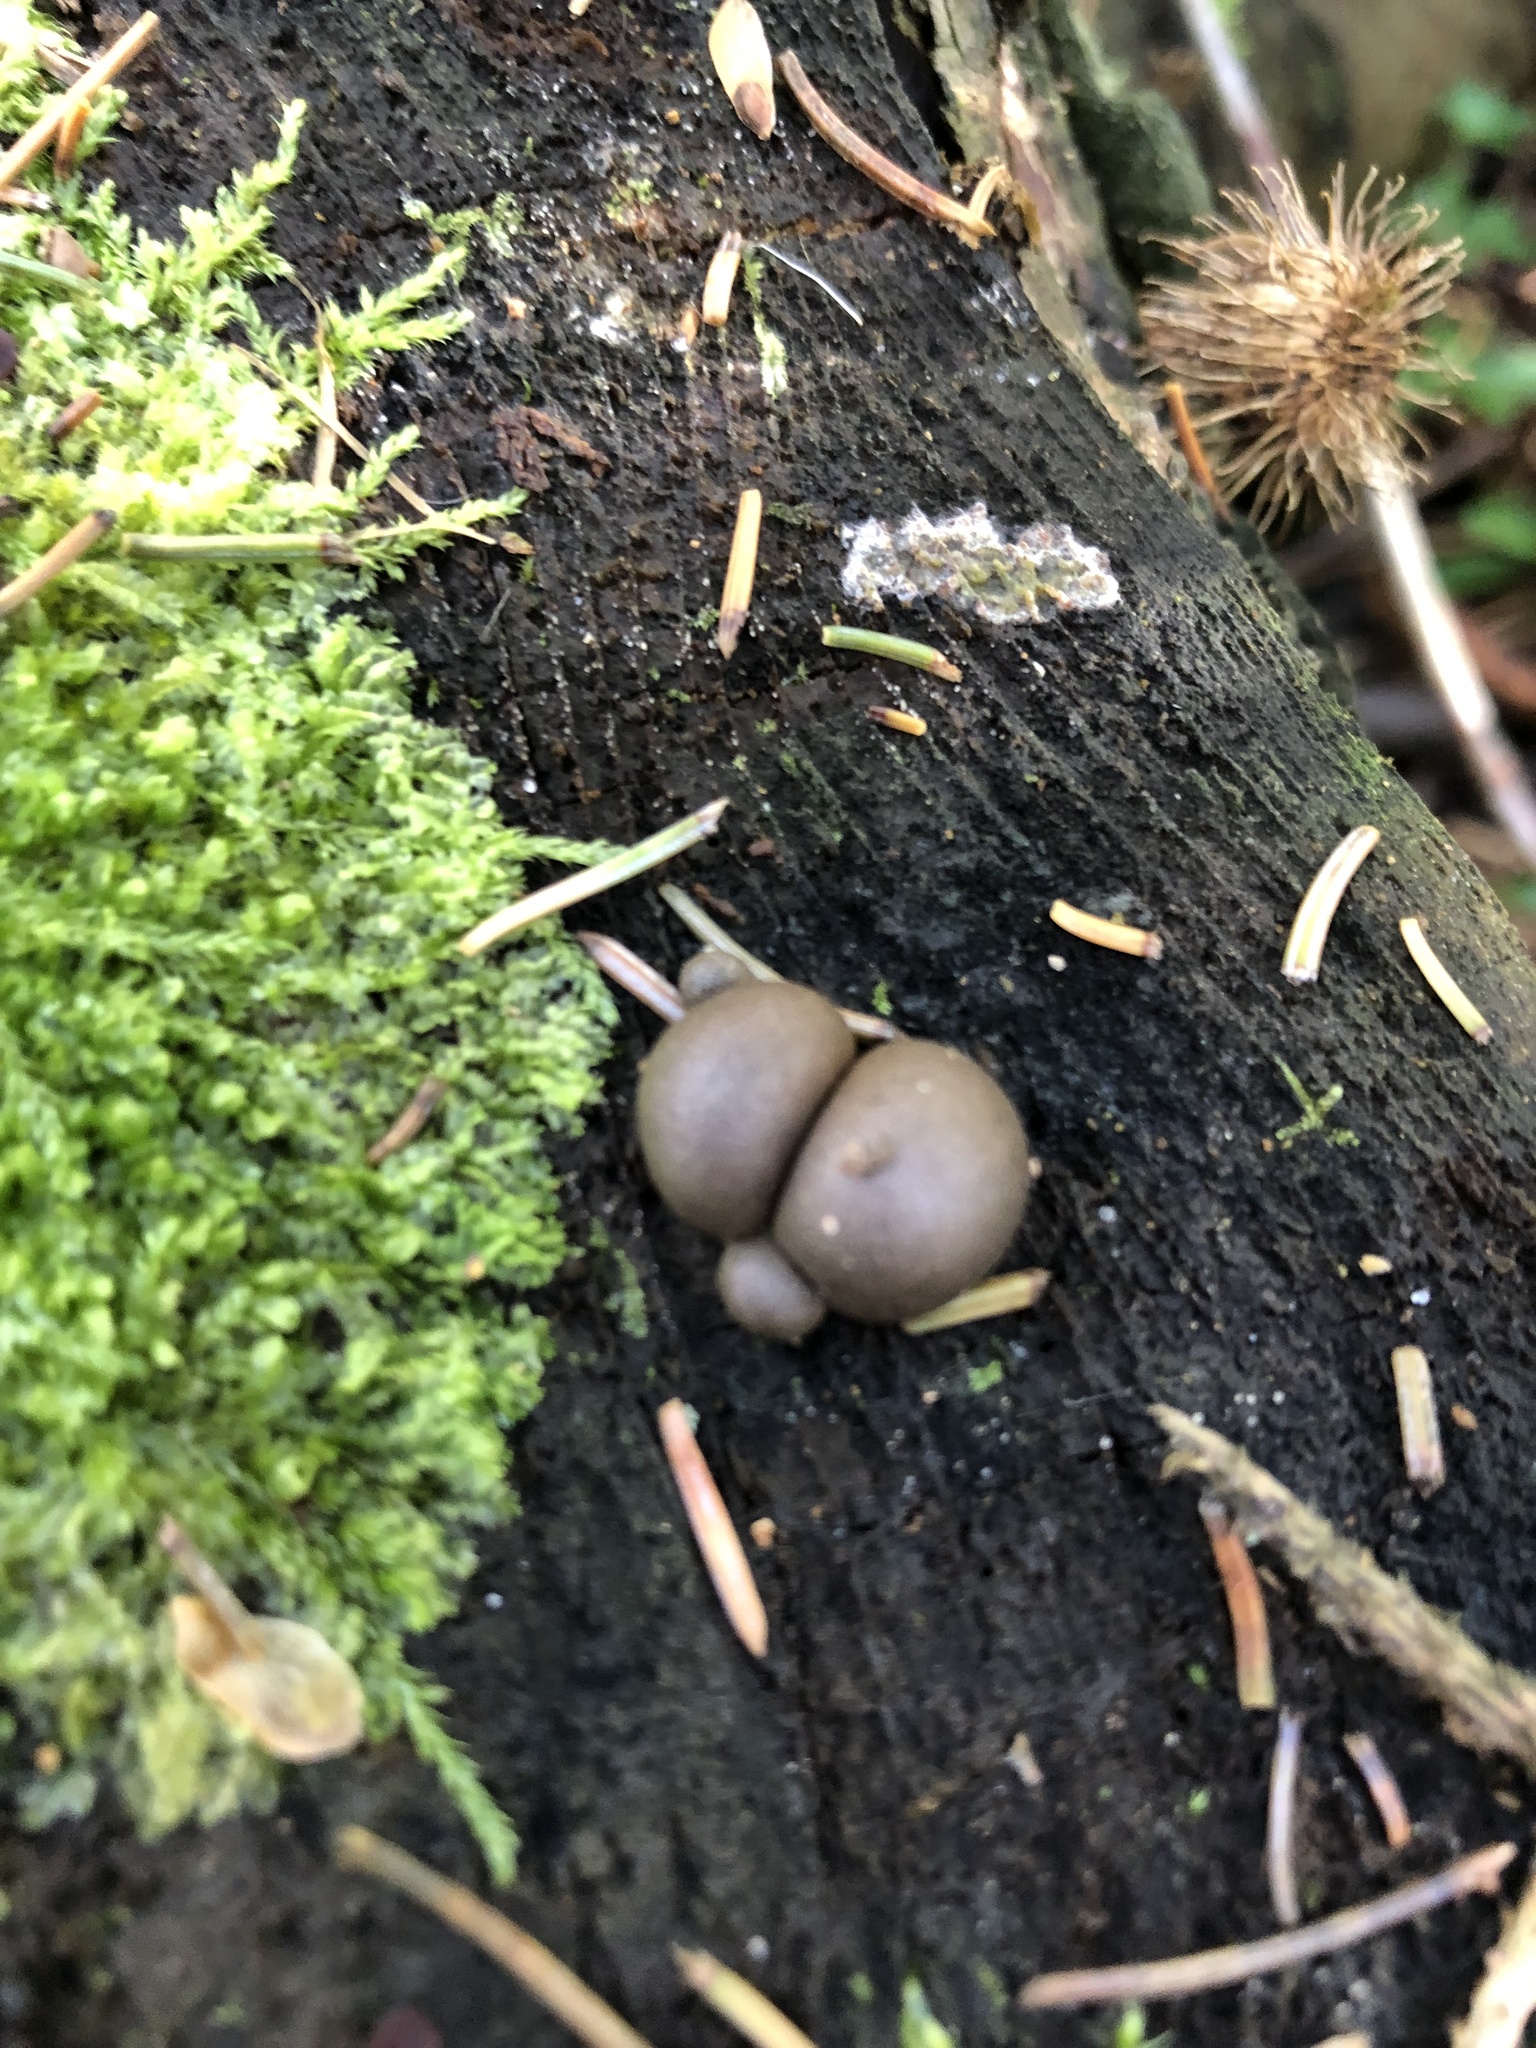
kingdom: Protozoa
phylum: Mycetozoa
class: Myxomycetes
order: Cribrariales
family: Tubiferaceae
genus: Lycogala
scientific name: Lycogala epidendrum
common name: Wolf's milk
